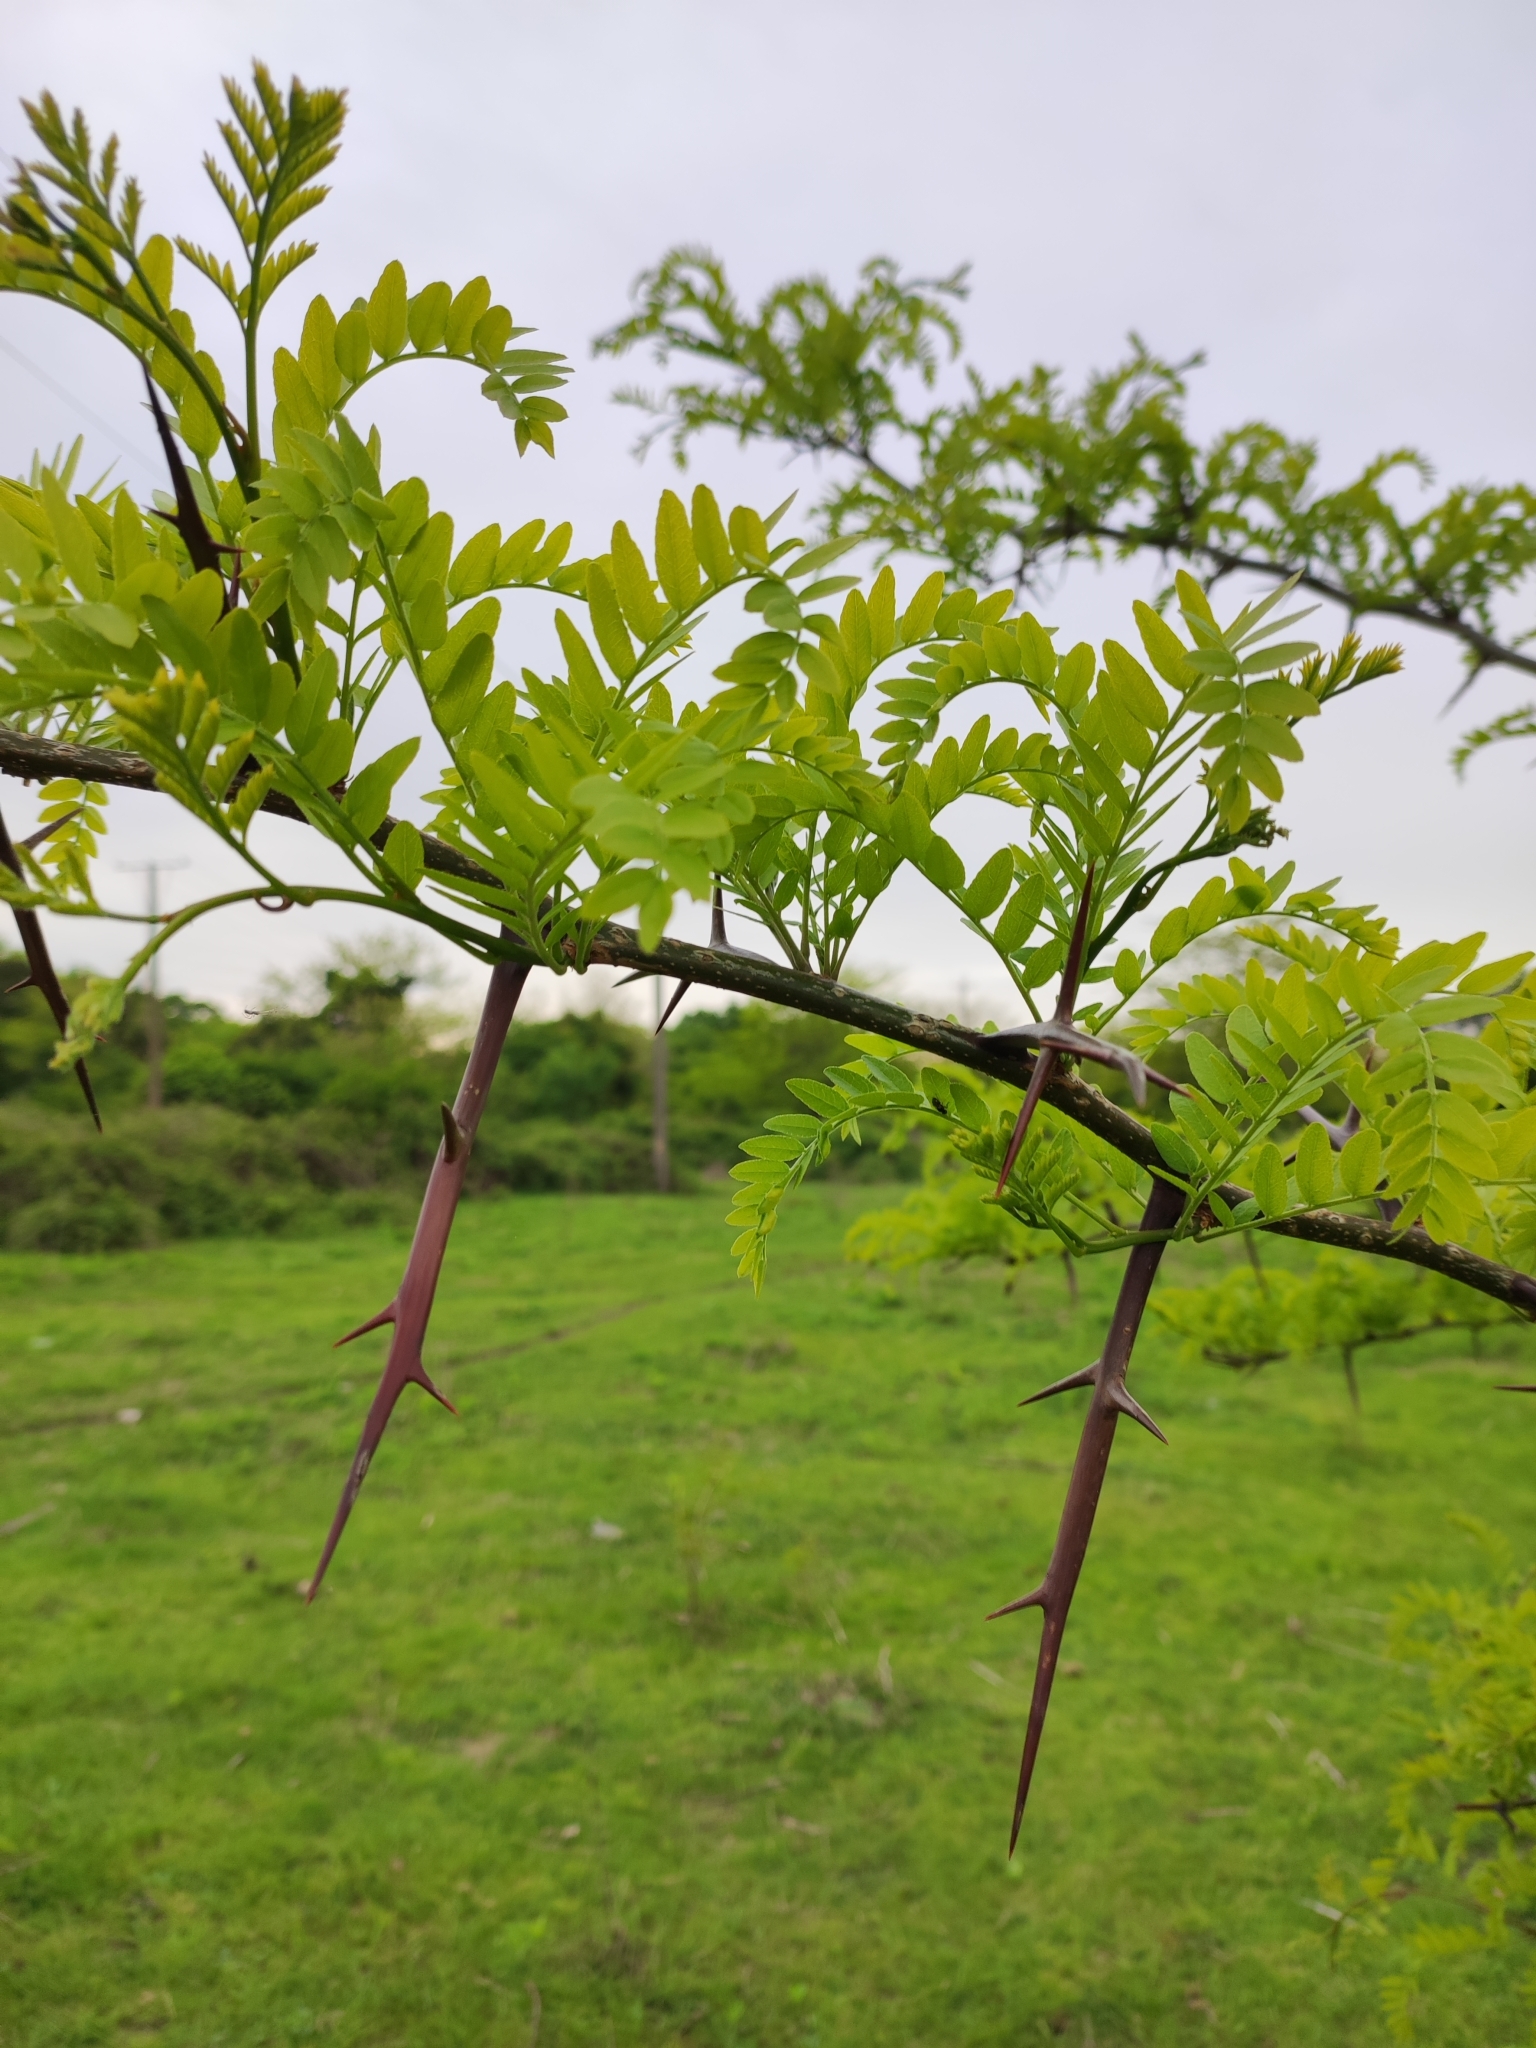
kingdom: Plantae
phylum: Tracheophyta
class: Magnoliopsida
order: Fabales
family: Fabaceae
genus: Gleditsia
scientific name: Gleditsia triacanthos
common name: Common honeylocust
